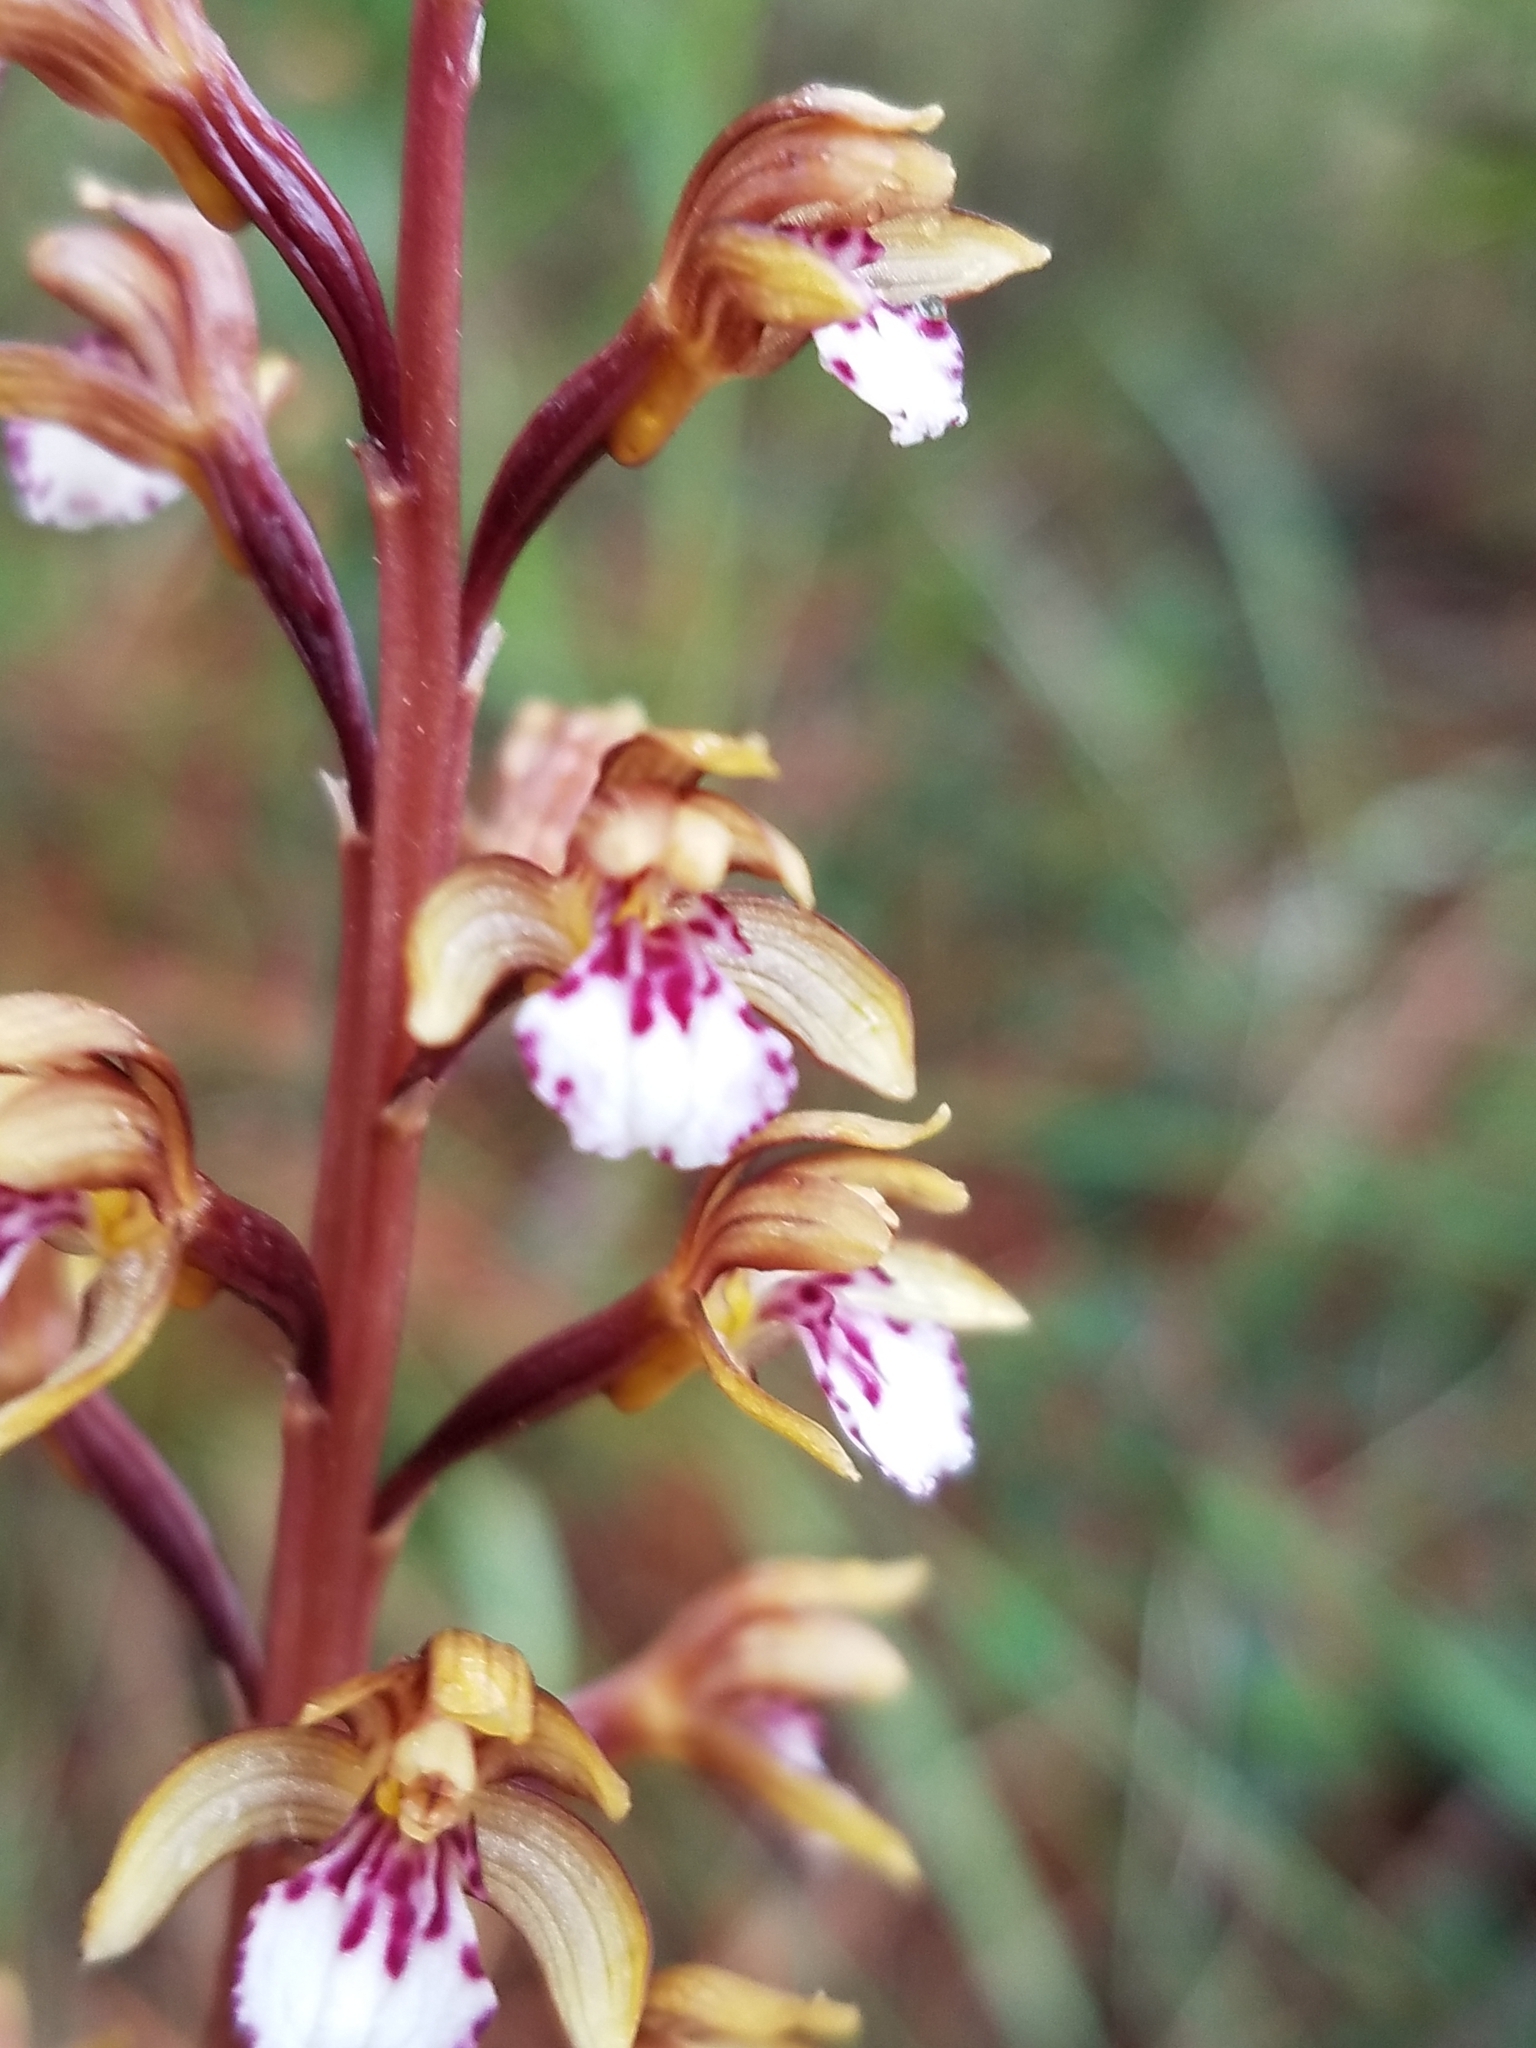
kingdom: Plantae
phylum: Tracheophyta
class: Liliopsida
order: Asparagales
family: Orchidaceae
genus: Corallorhiza
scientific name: Corallorhiza maculata
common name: Spotted coralroot
